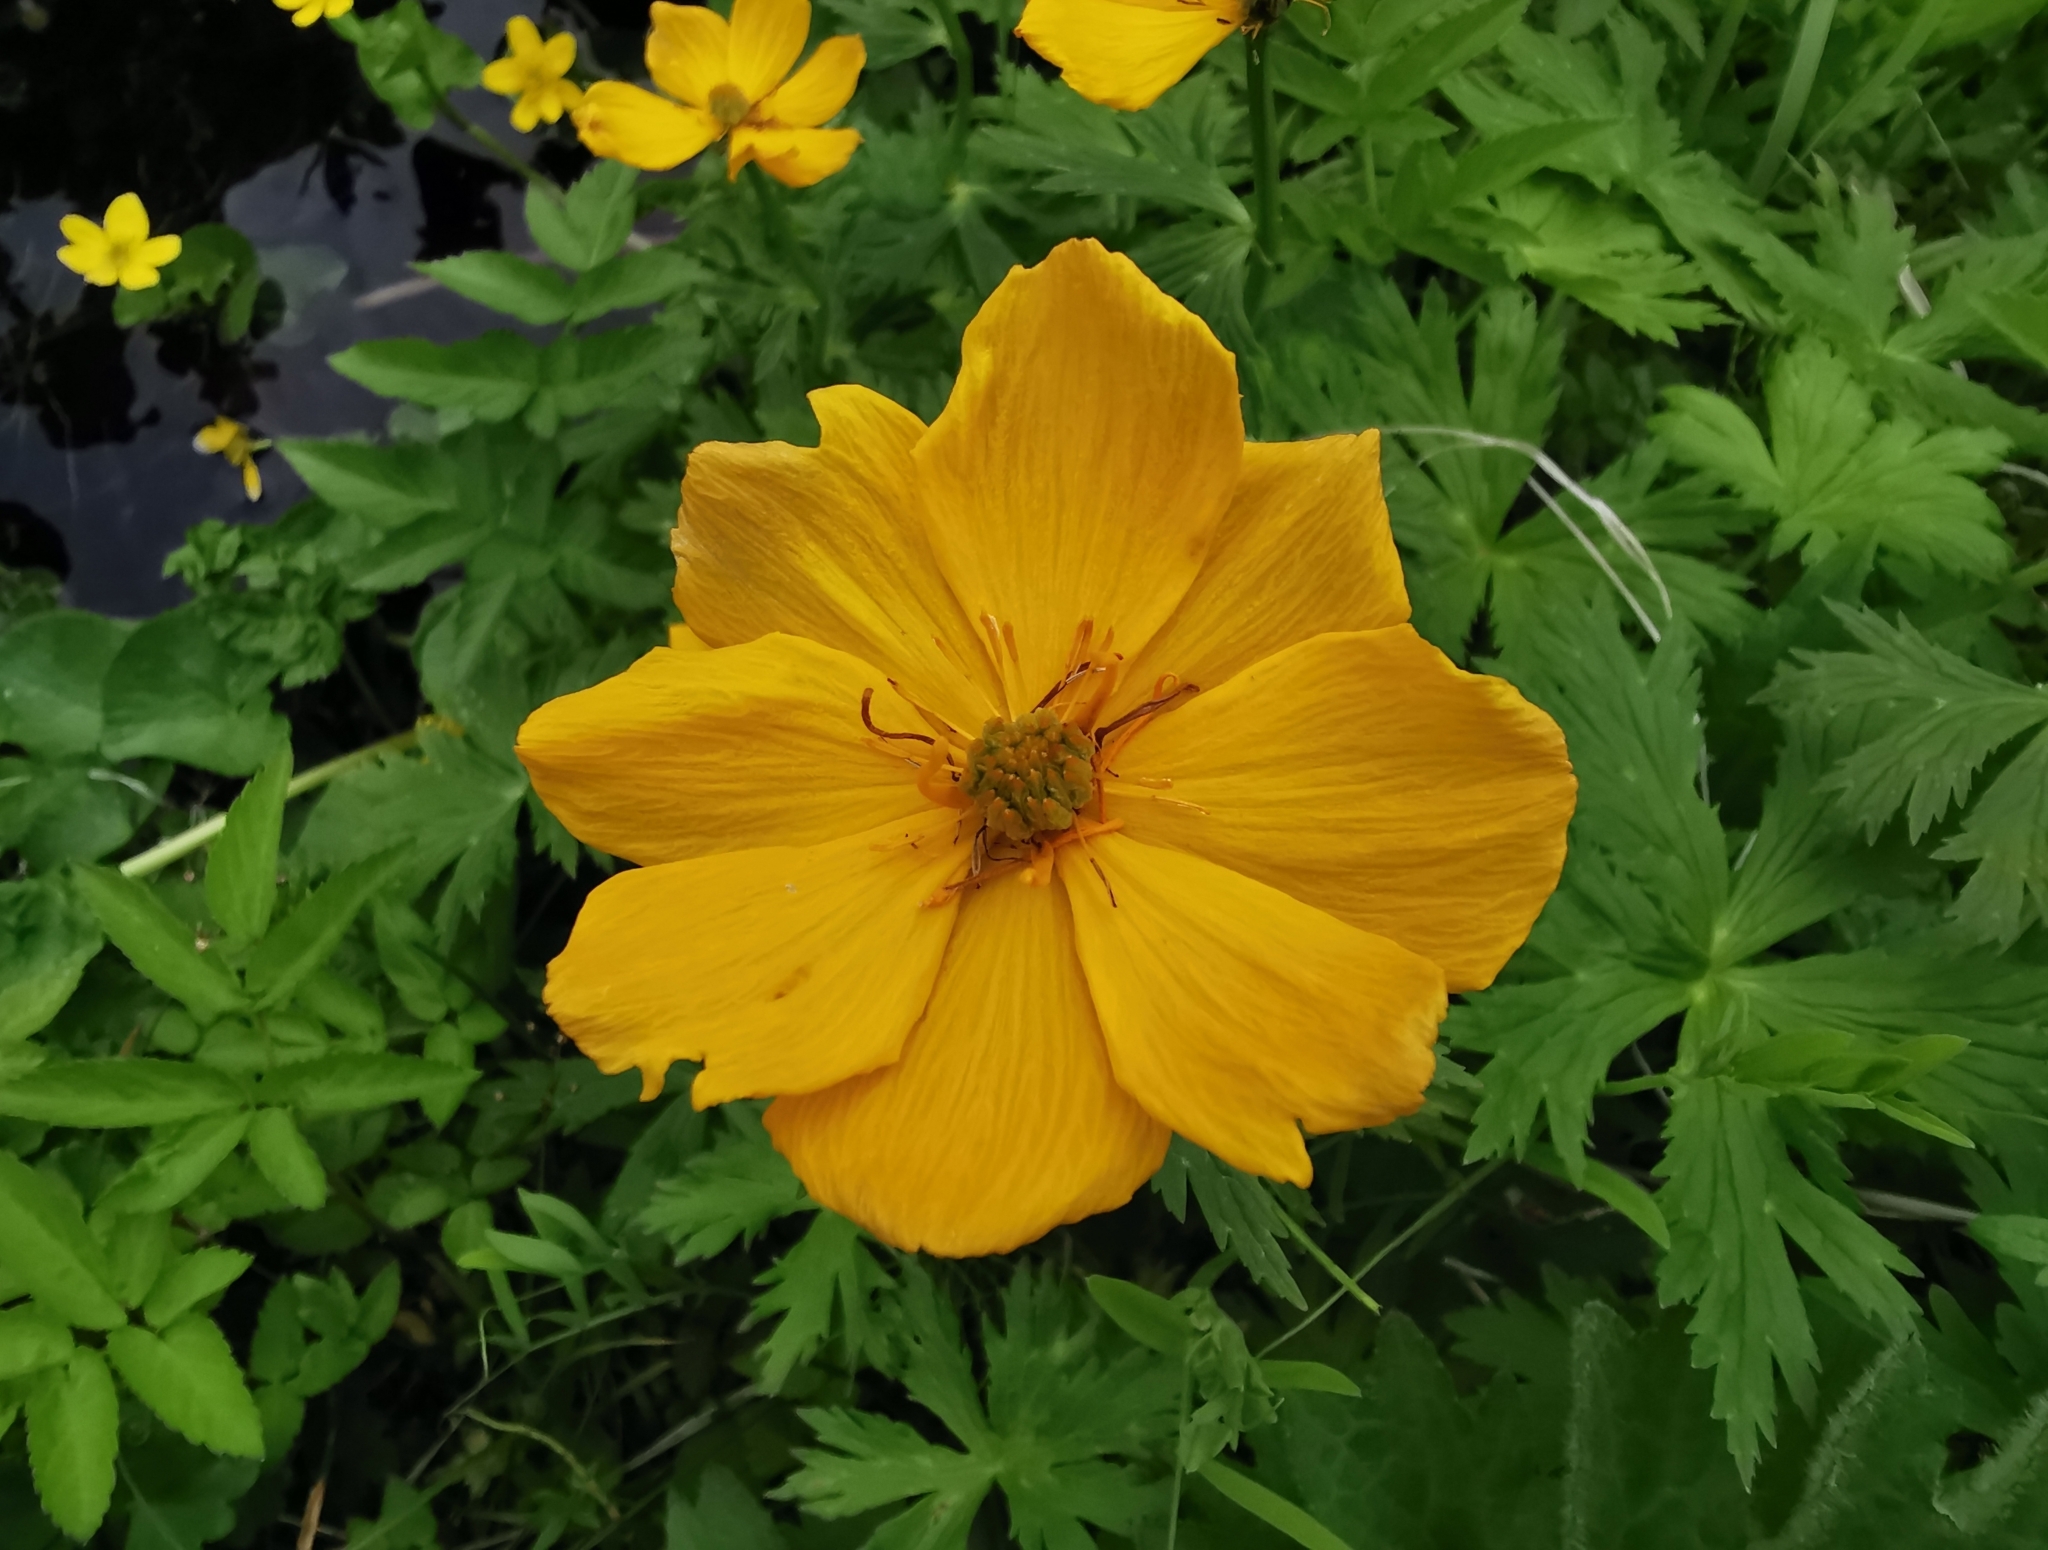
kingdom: Plantae
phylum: Tracheophyta
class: Magnoliopsida
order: Ranunculales
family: Ranunculaceae
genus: Trollius
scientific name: Trollius riederianus
